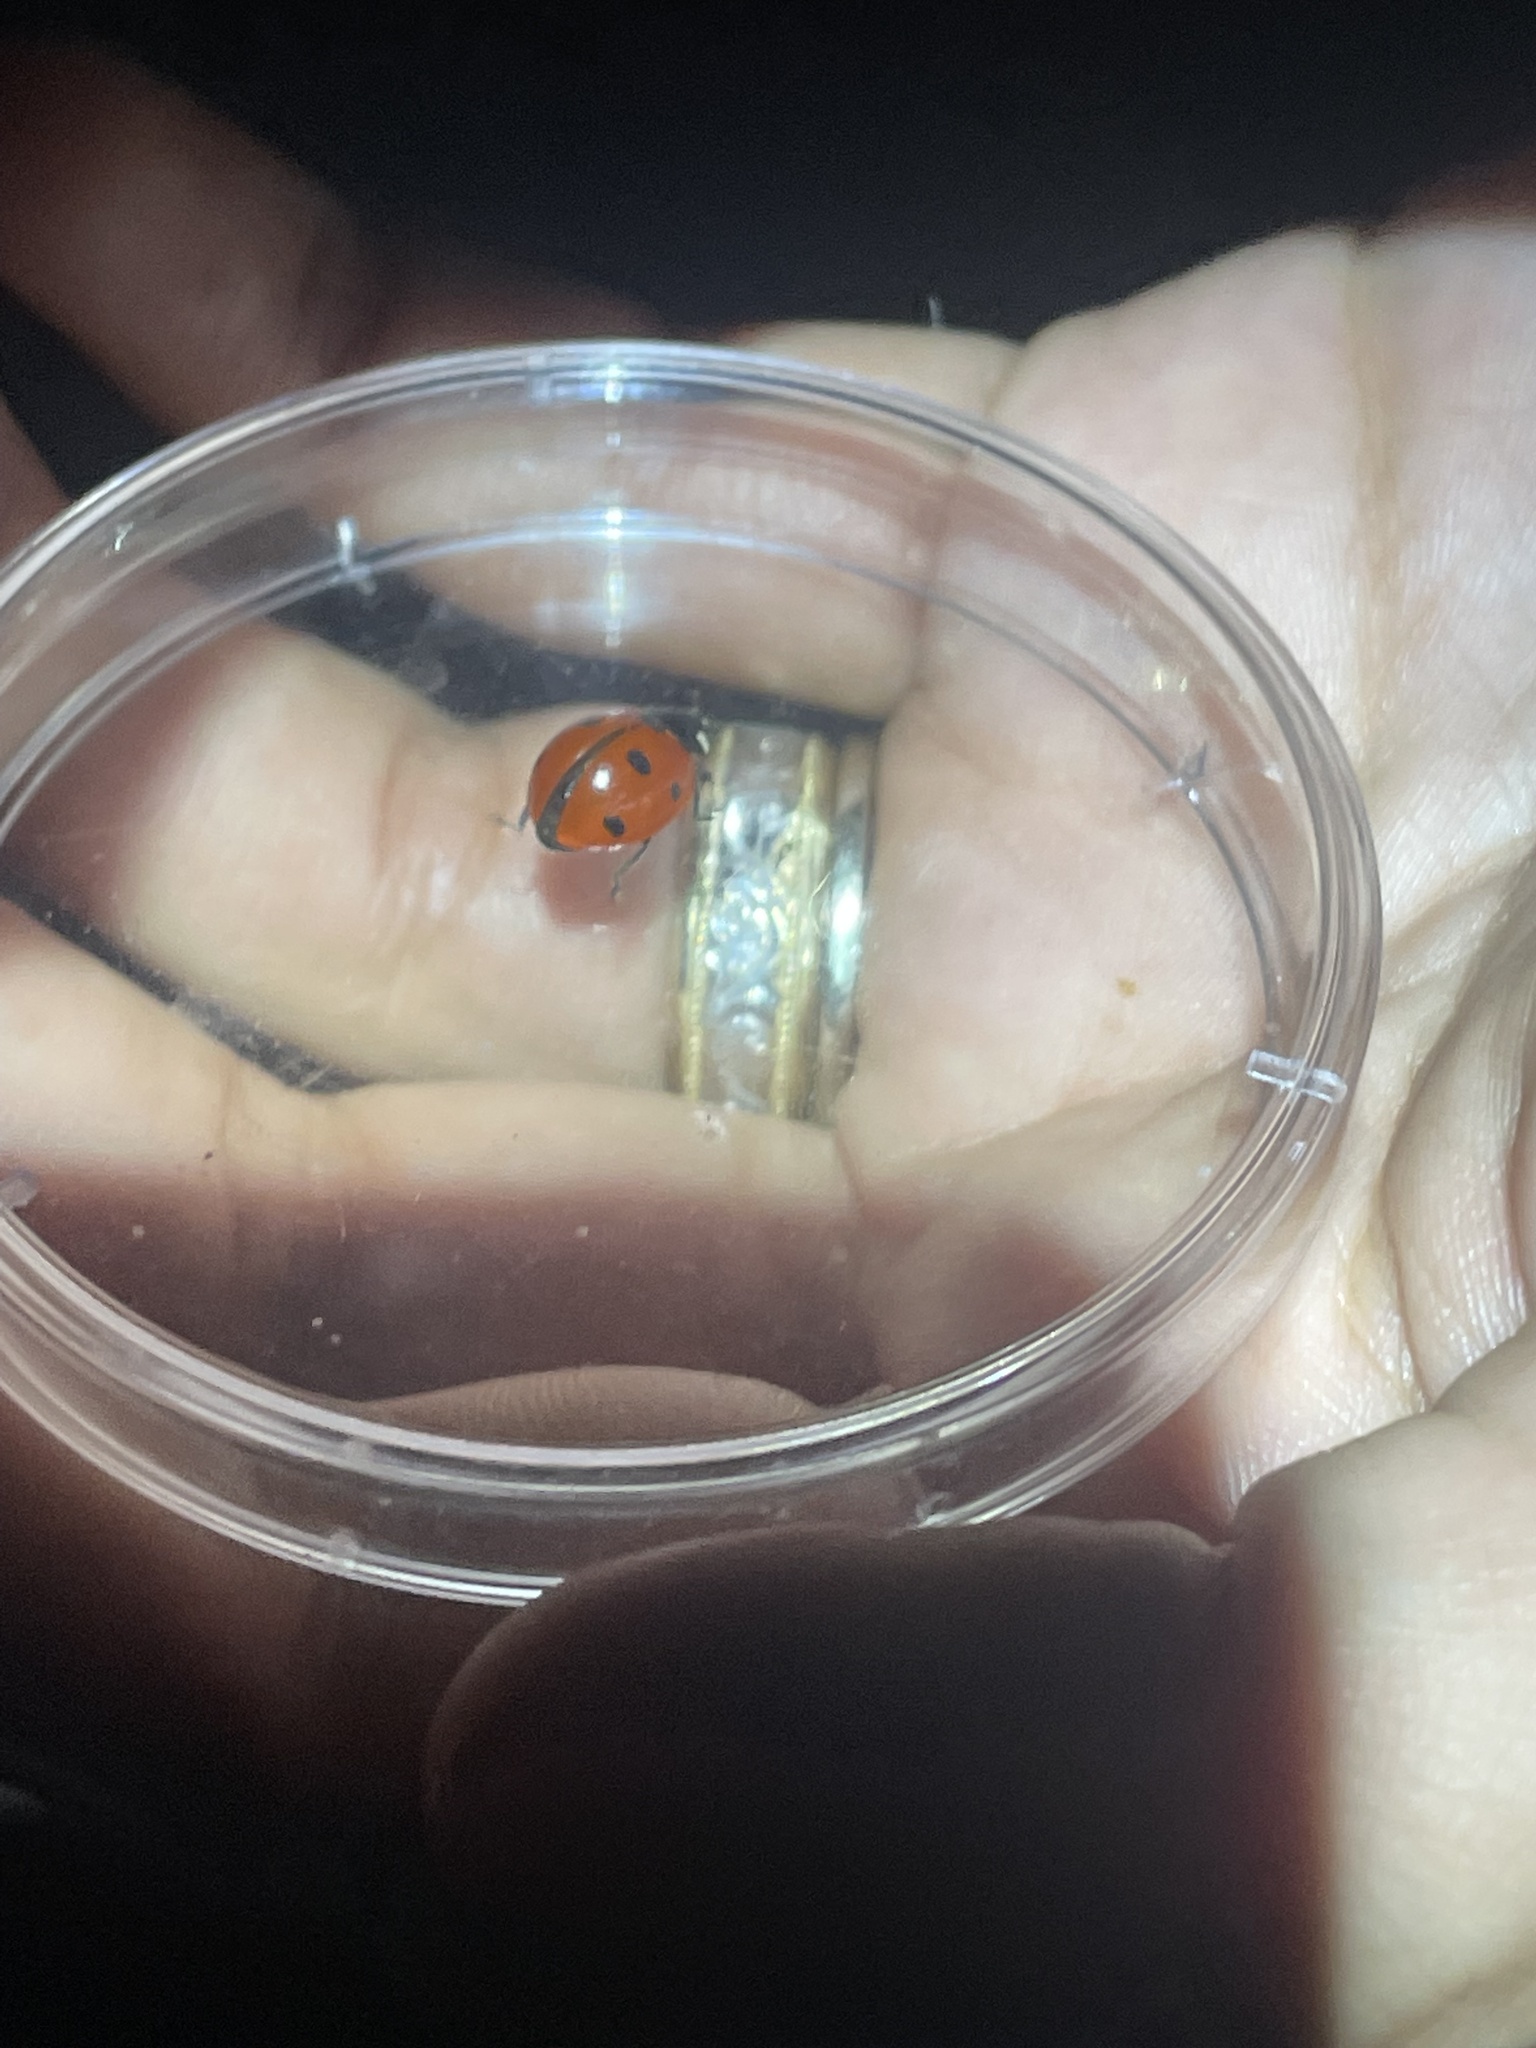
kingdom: Animalia
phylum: Arthropoda
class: Insecta
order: Coleoptera
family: Coccinellidae
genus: Coccinella
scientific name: Coccinella septempunctata
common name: Sevenspotted lady beetle
